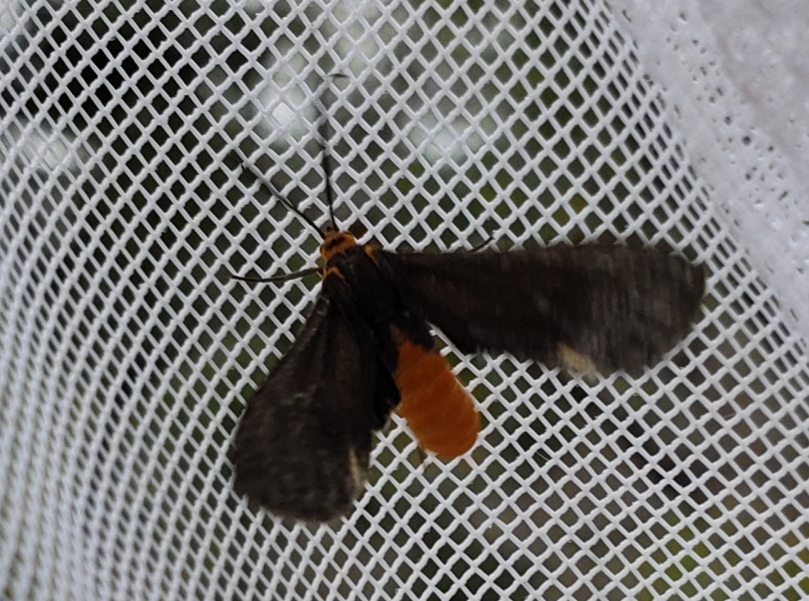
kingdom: Animalia
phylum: Arthropoda
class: Insecta
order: Lepidoptera
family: Erebidae
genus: Dahana
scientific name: Dahana atripennis
